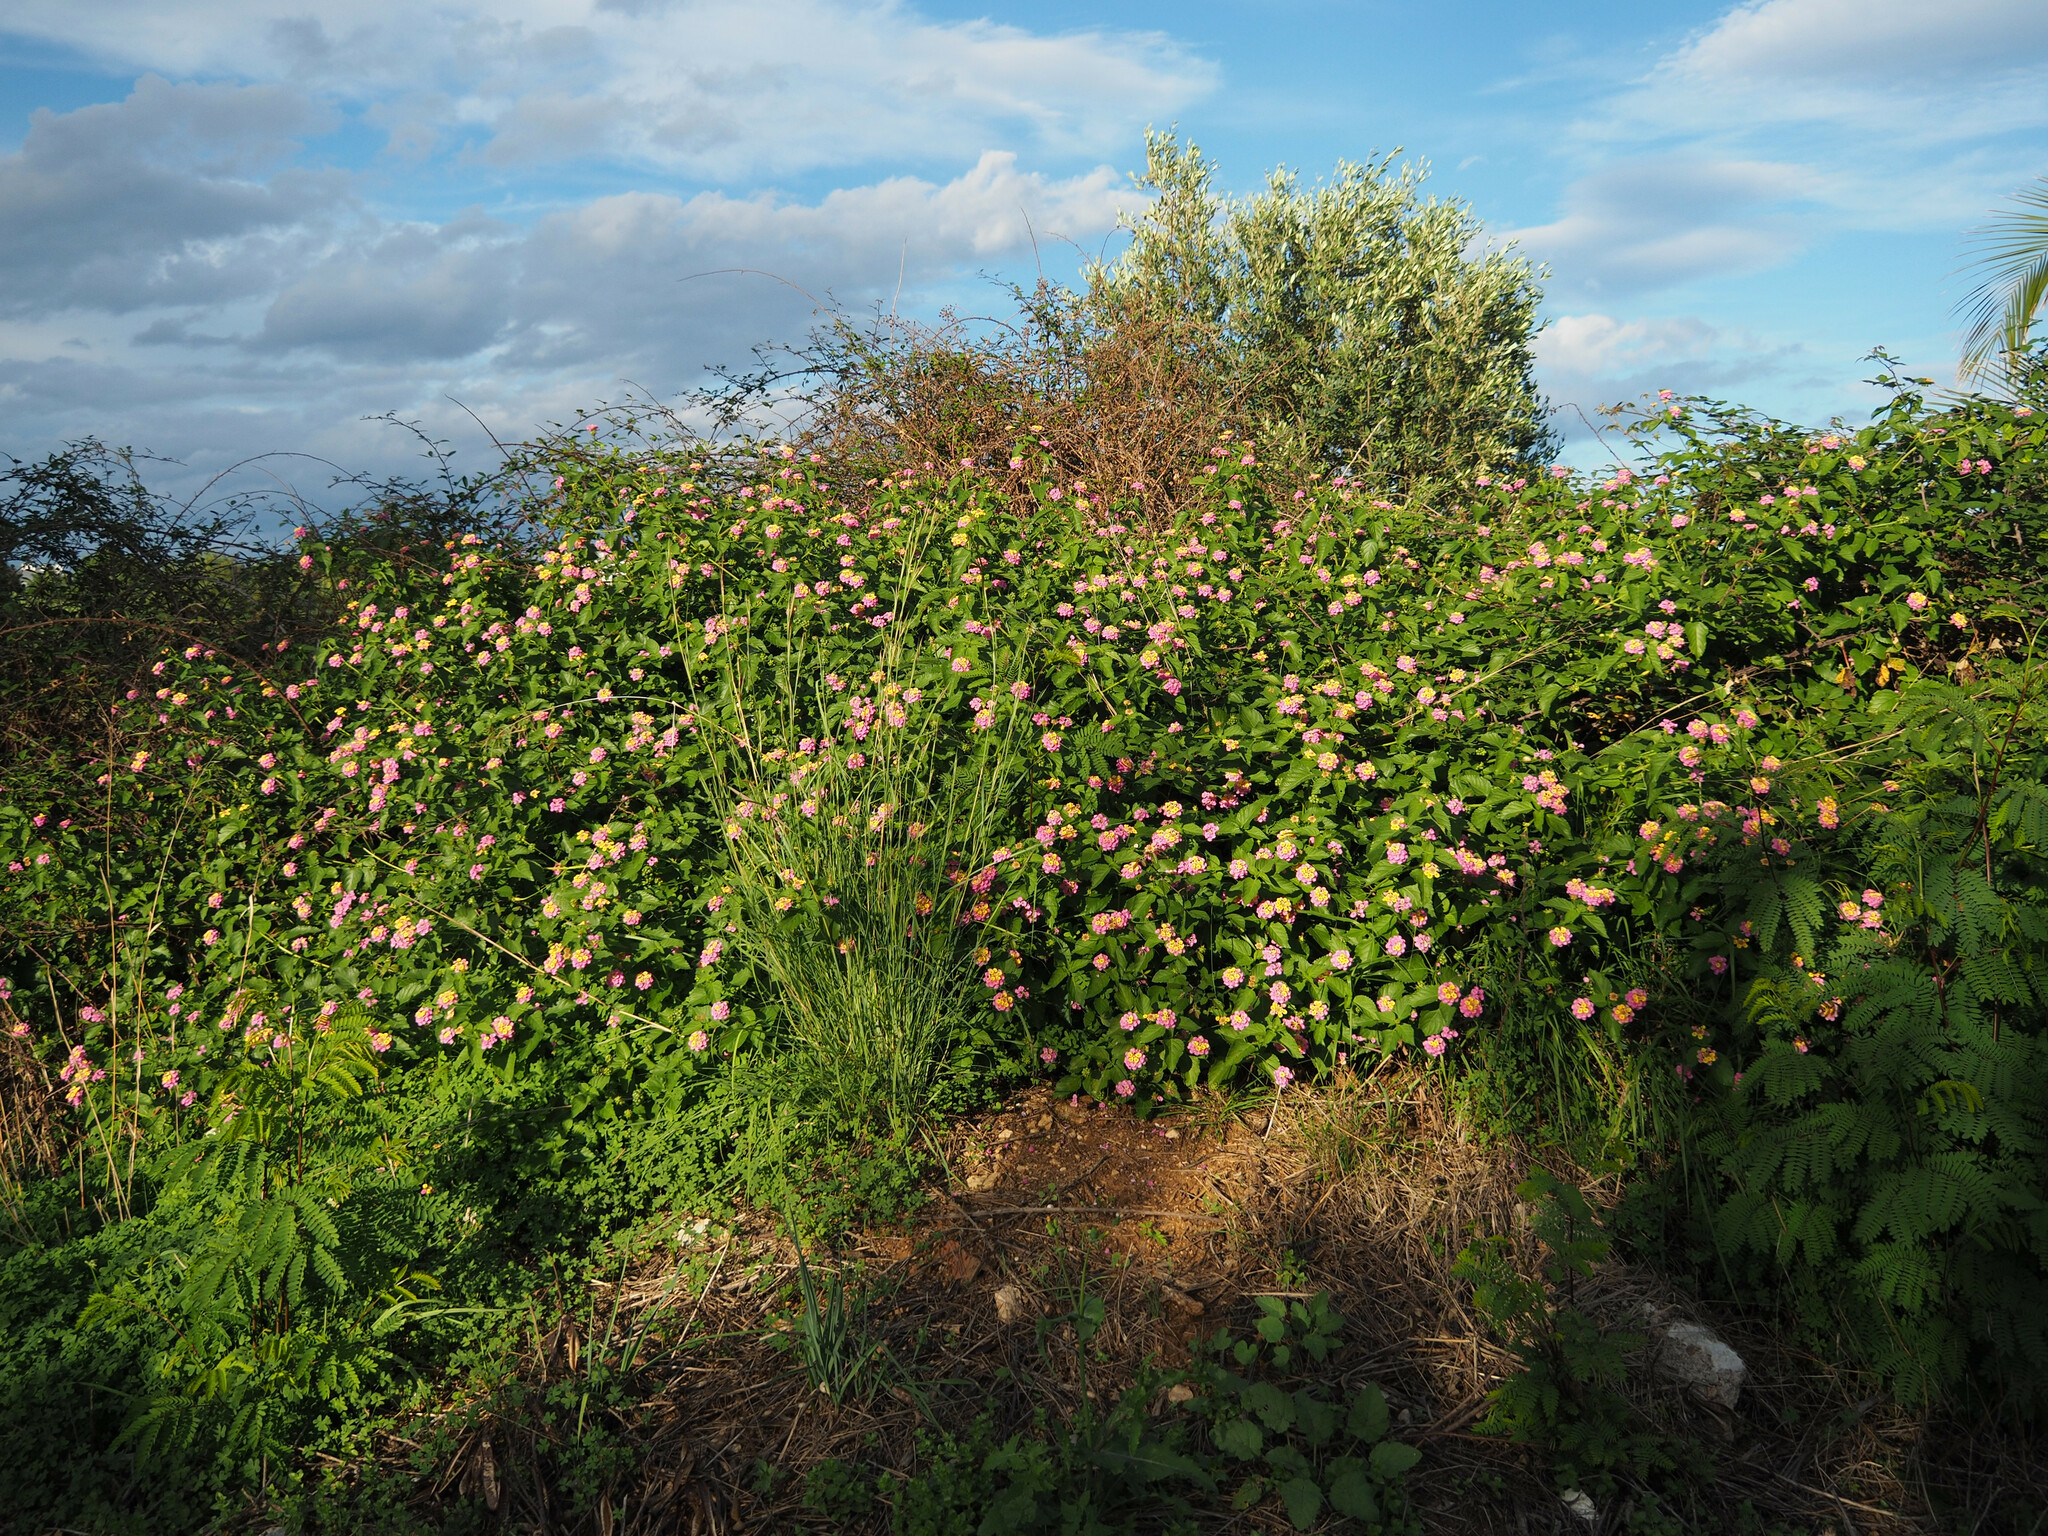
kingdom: Plantae
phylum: Tracheophyta
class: Magnoliopsida
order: Lamiales
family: Verbenaceae
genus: Lantana
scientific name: Lantana camara
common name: Lantana
